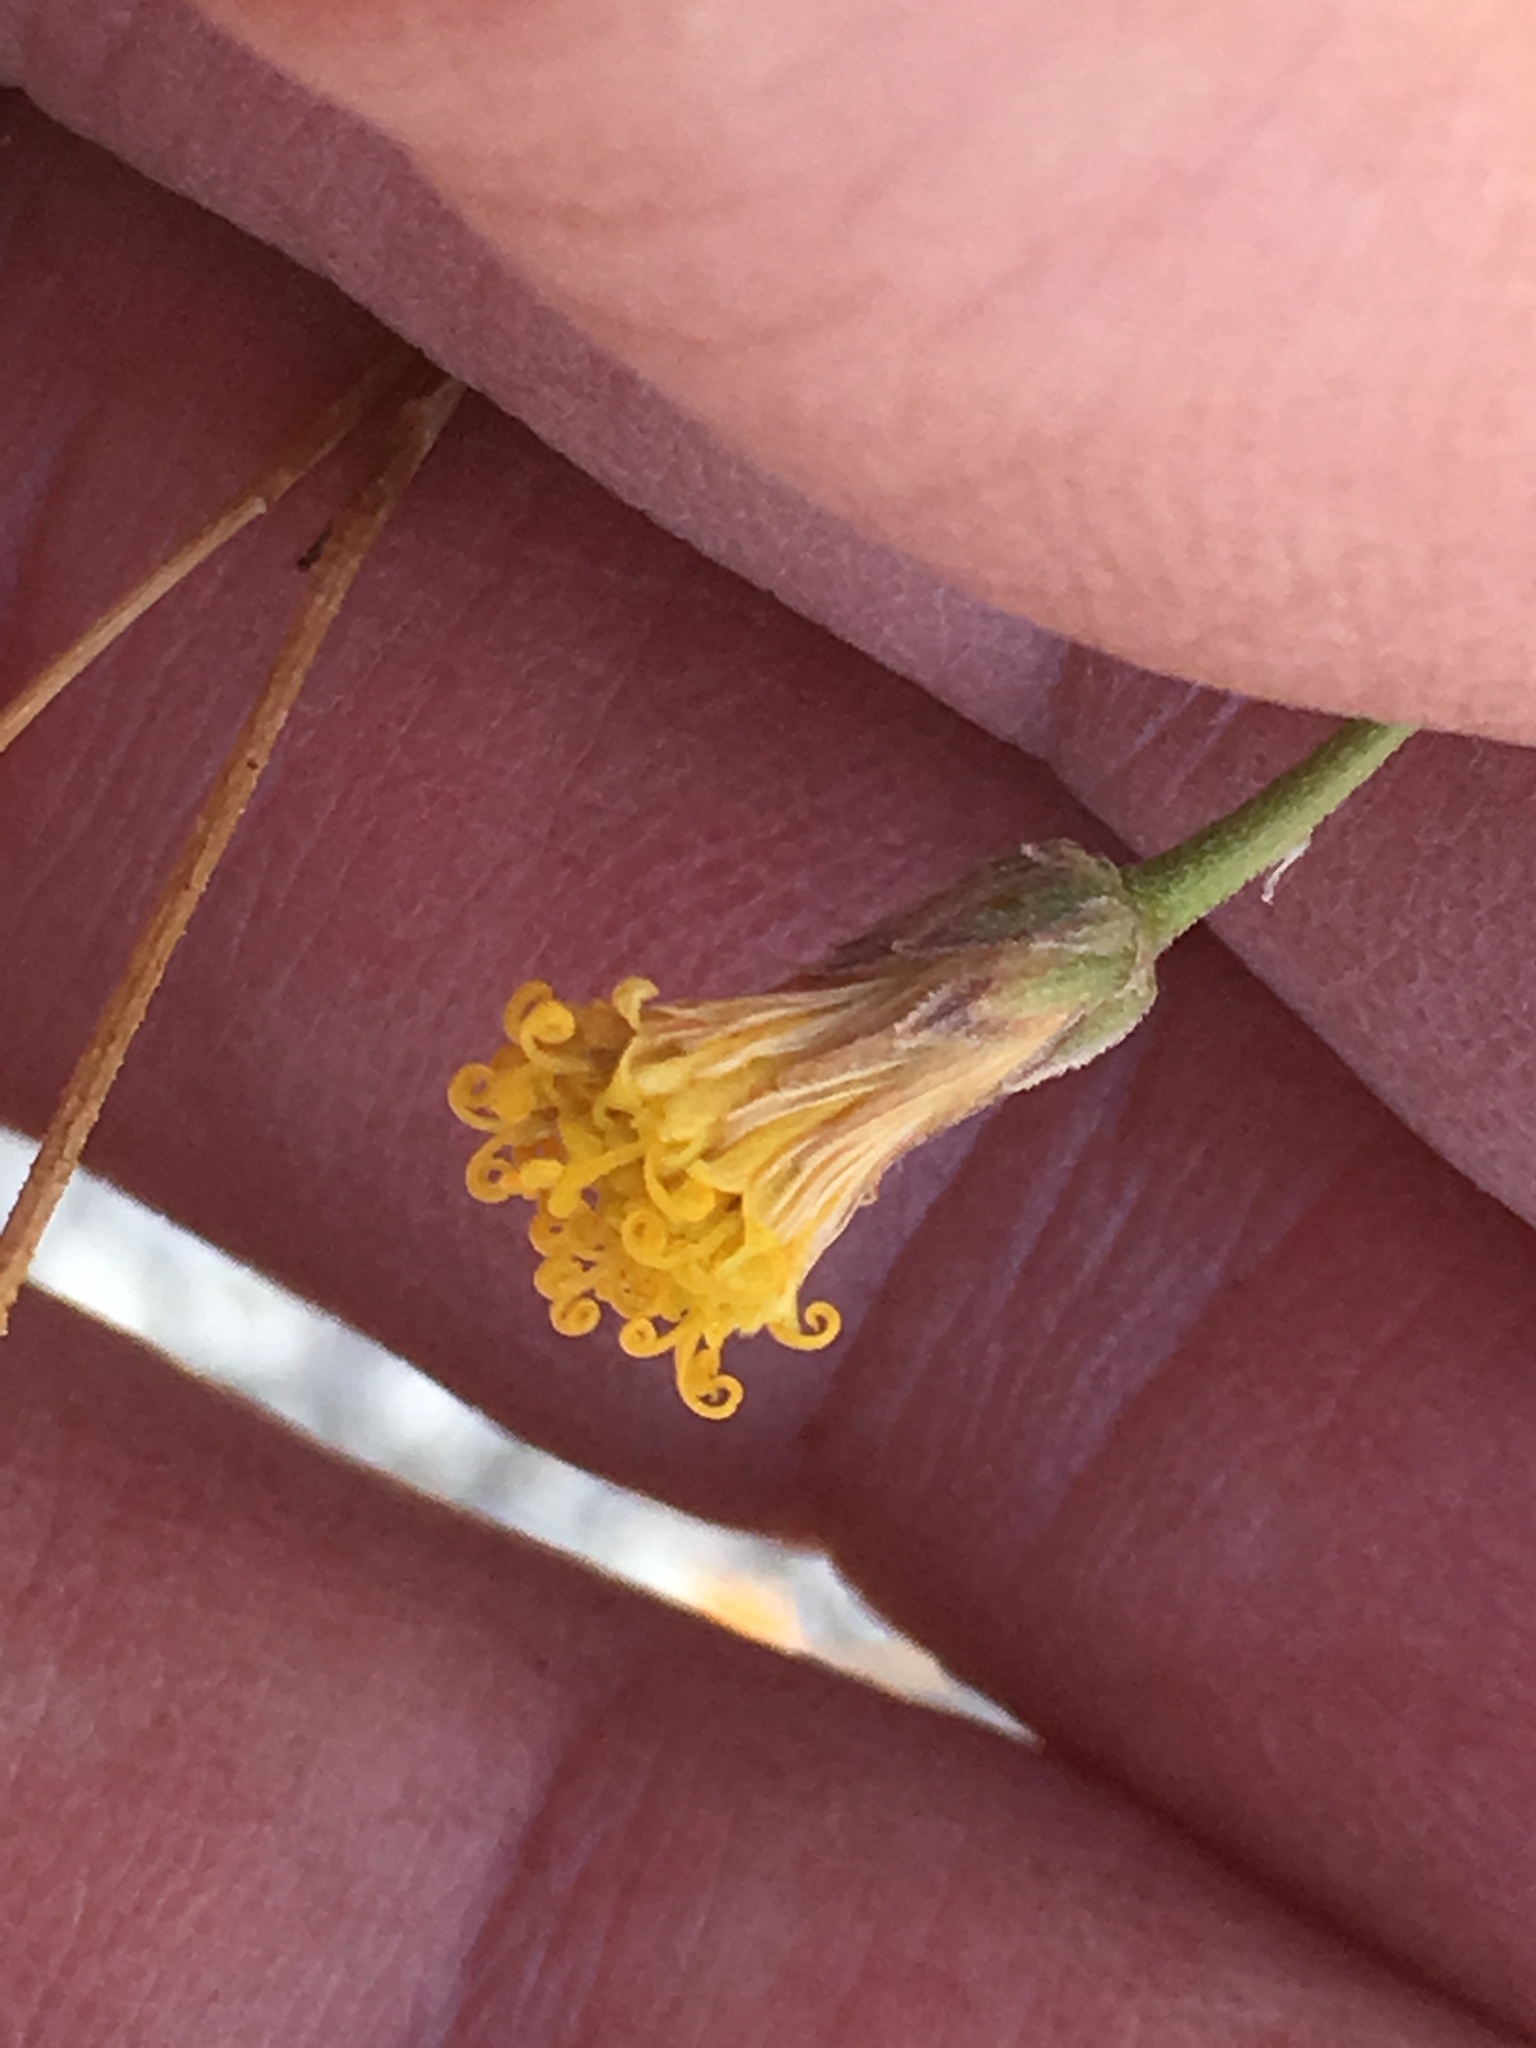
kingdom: Plantae
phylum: Tracheophyta
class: Magnoliopsida
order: Asterales
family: Asteraceae
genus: Bebbia
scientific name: Bebbia juncea
